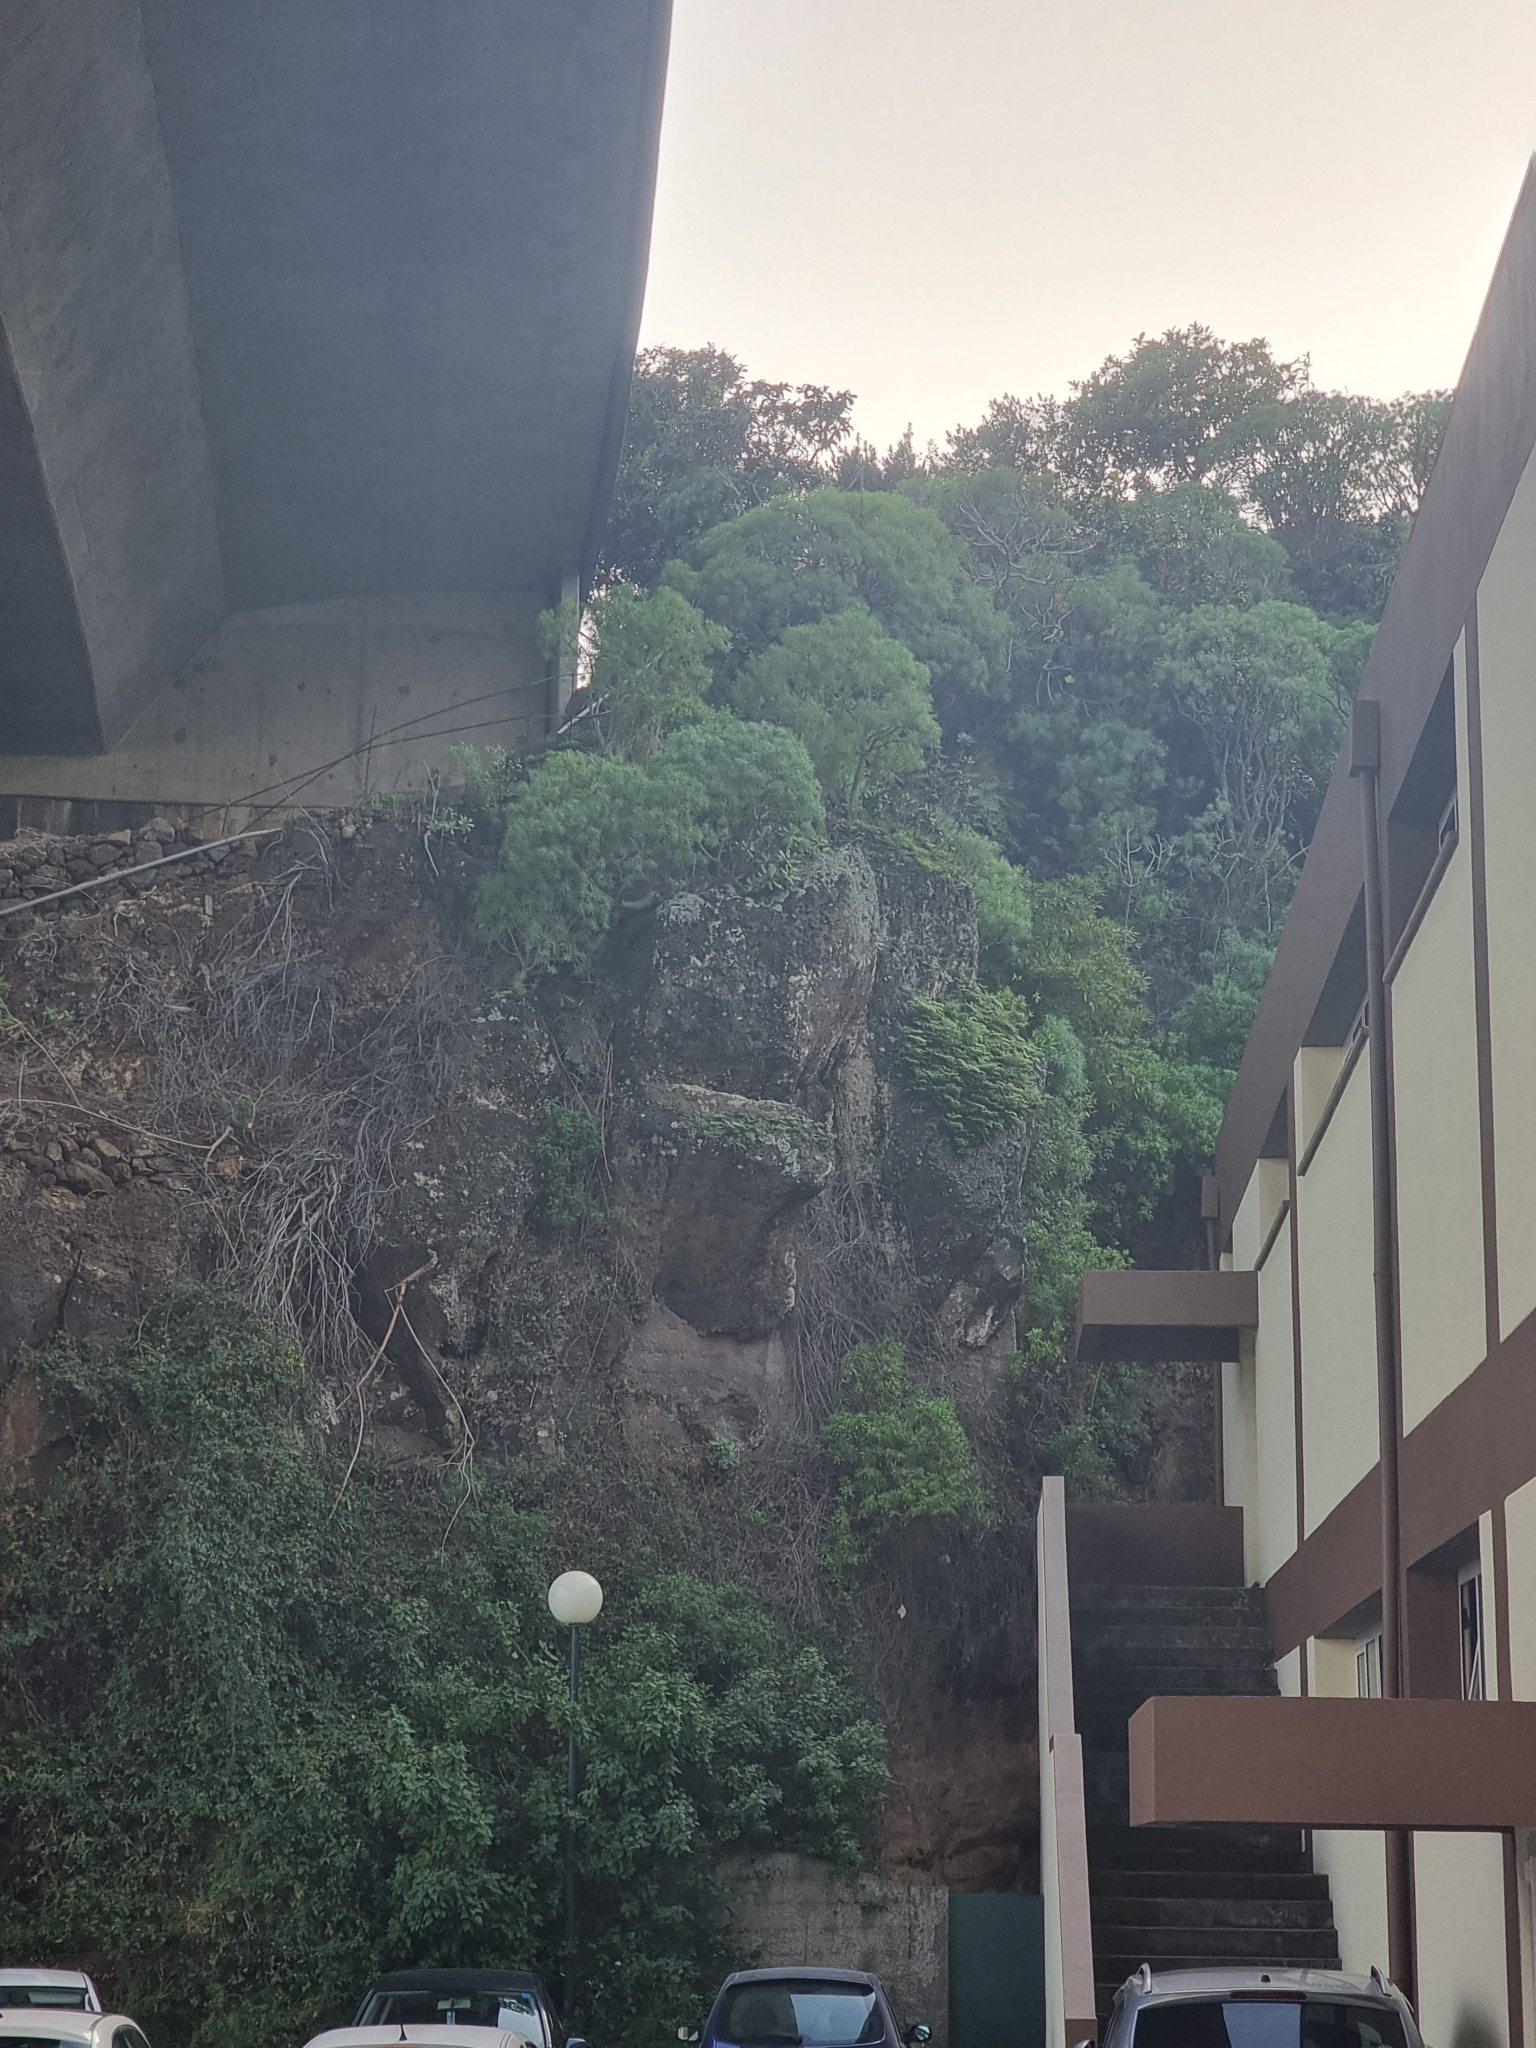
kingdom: Plantae
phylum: Tracheophyta
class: Magnoliopsida
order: Malpighiales
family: Euphorbiaceae
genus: Euphorbia
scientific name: Euphorbia piscatoria
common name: Fish-stunning spurge
